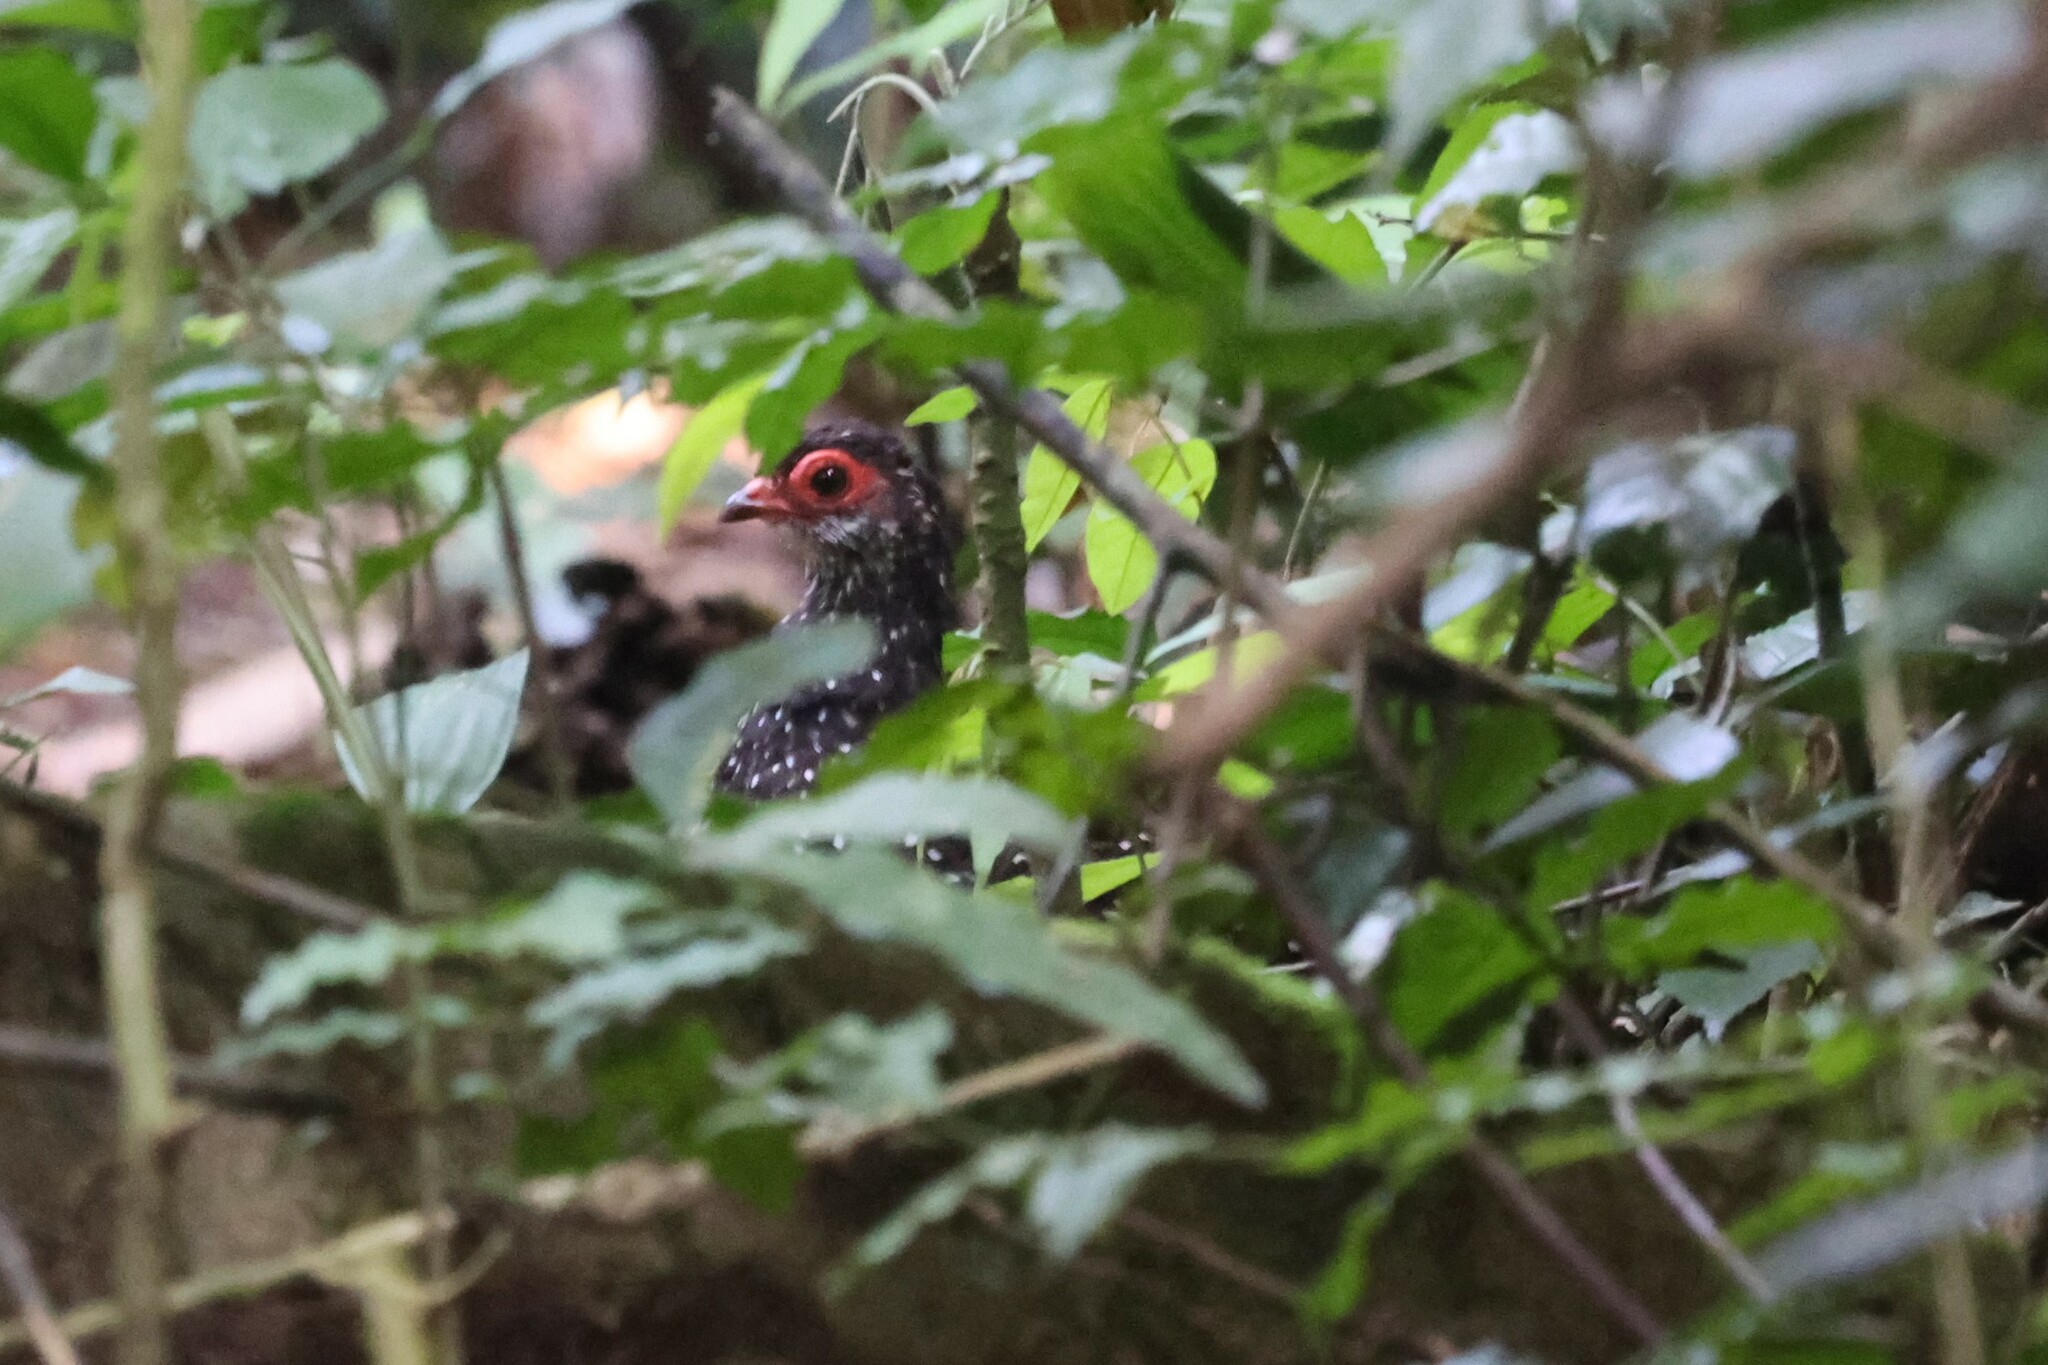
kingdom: Animalia
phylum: Chordata
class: Aves
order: Galliformes
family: Odontophoridae
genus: Ptilopachus
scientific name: Ptilopachus nahani
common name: Nahan's partridge
